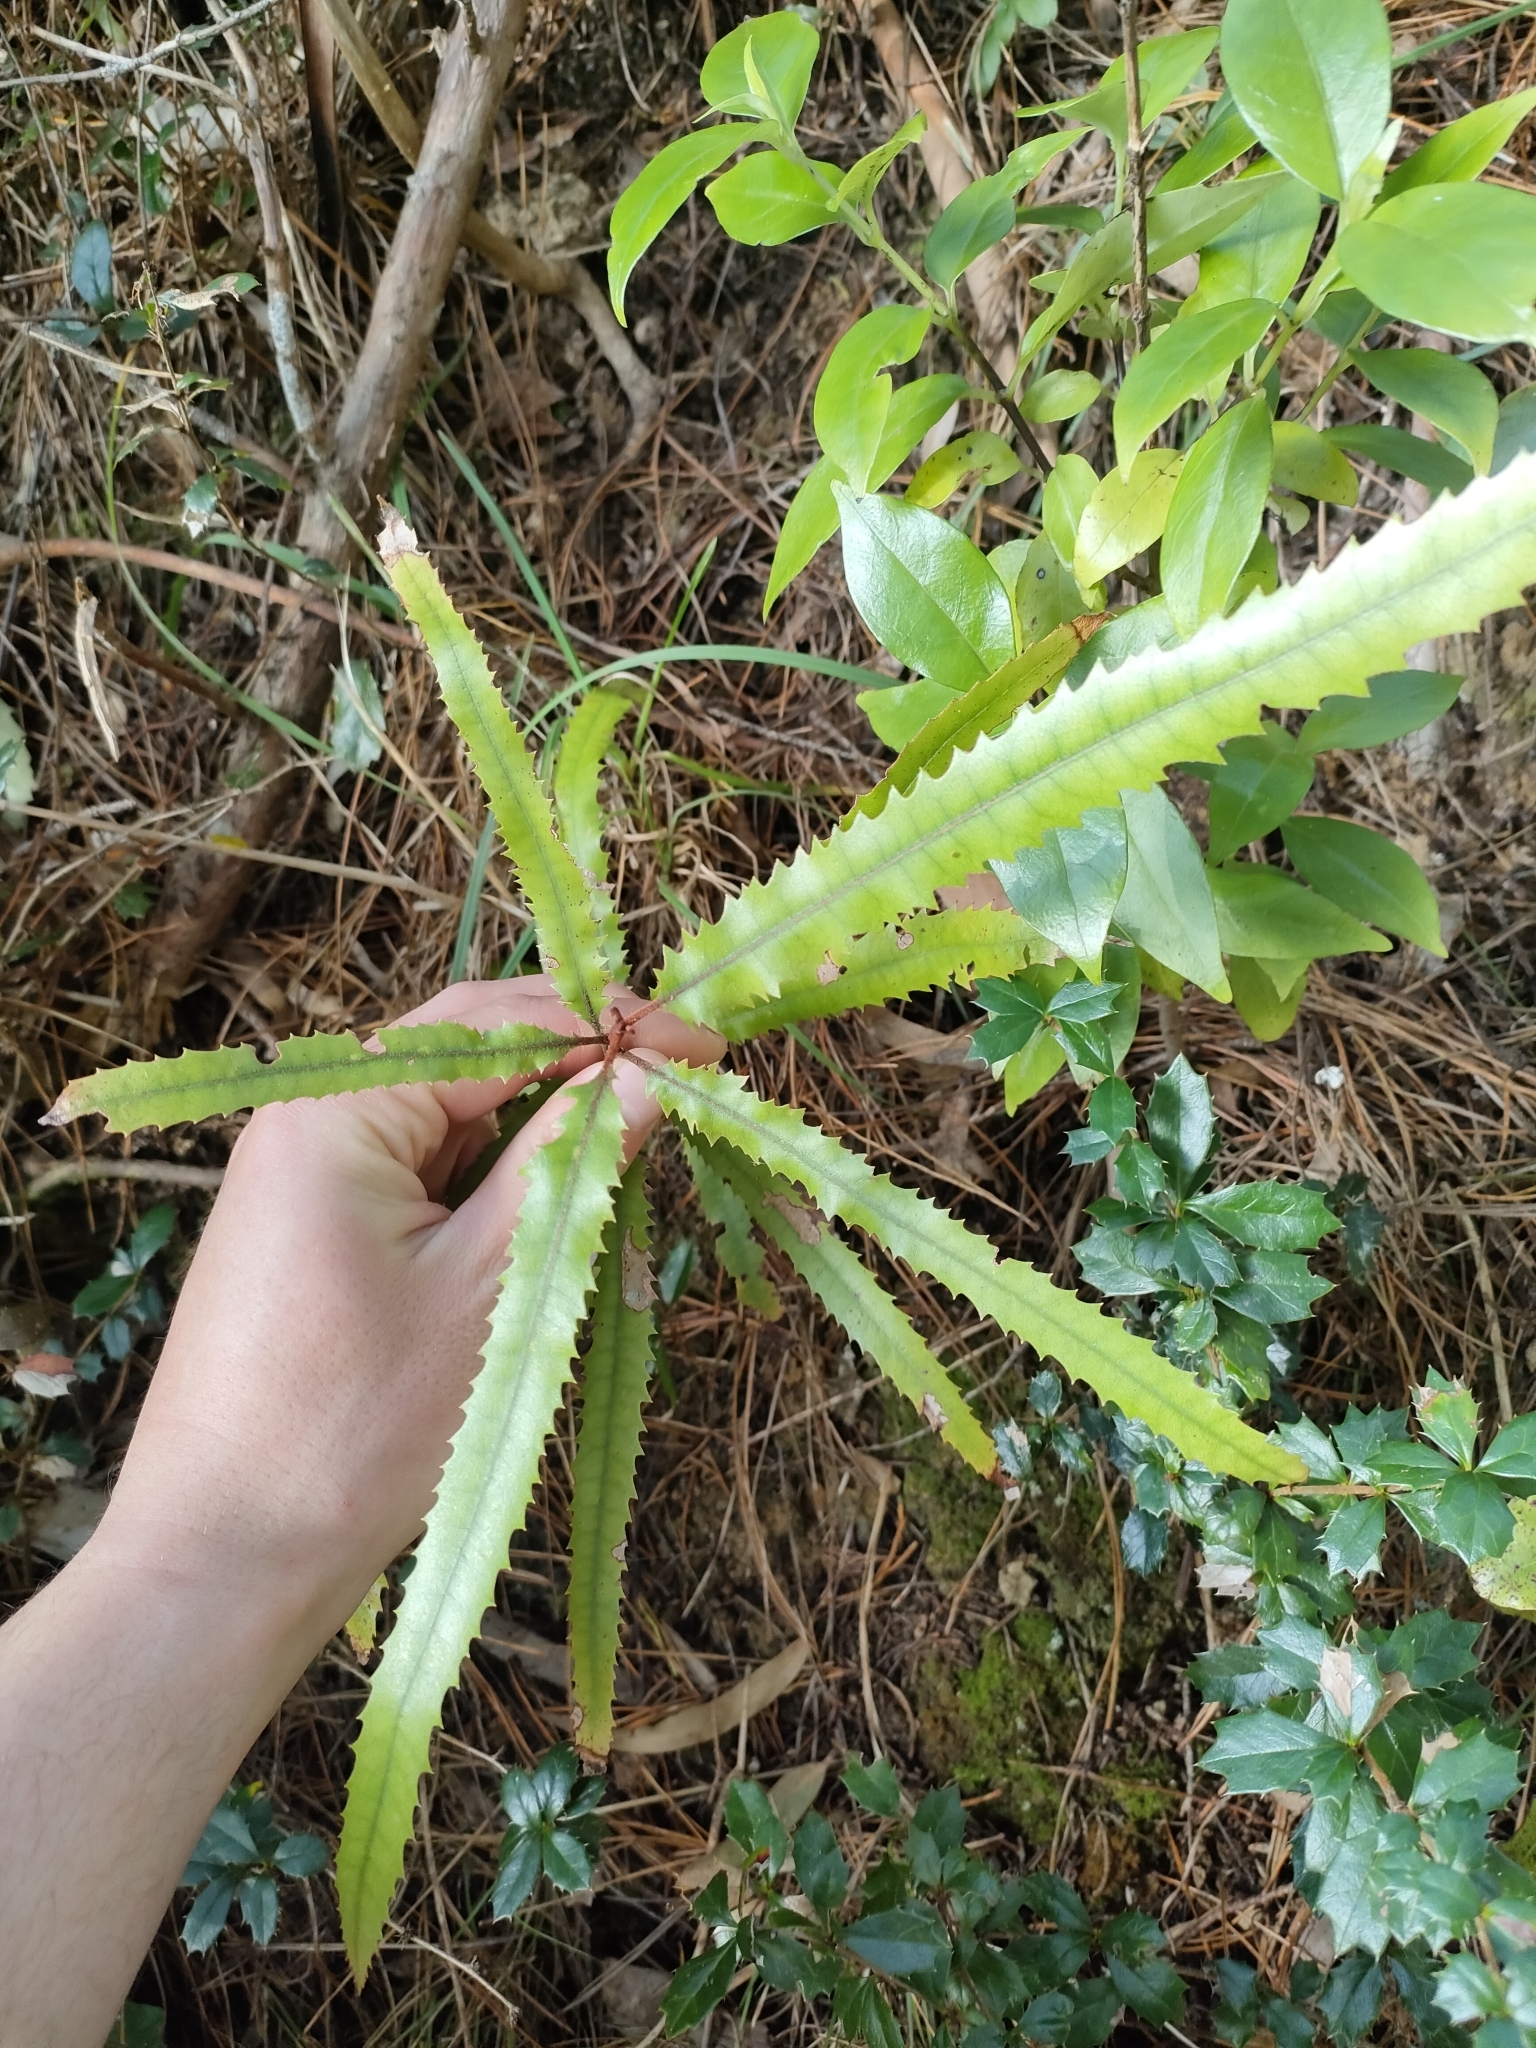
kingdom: Plantae
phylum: Tracheophyta
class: Magnoliopsida
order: Proteales
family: Proteaceae
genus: Knightia
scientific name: Knightia excelsa
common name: New zealand-honeysuckle
